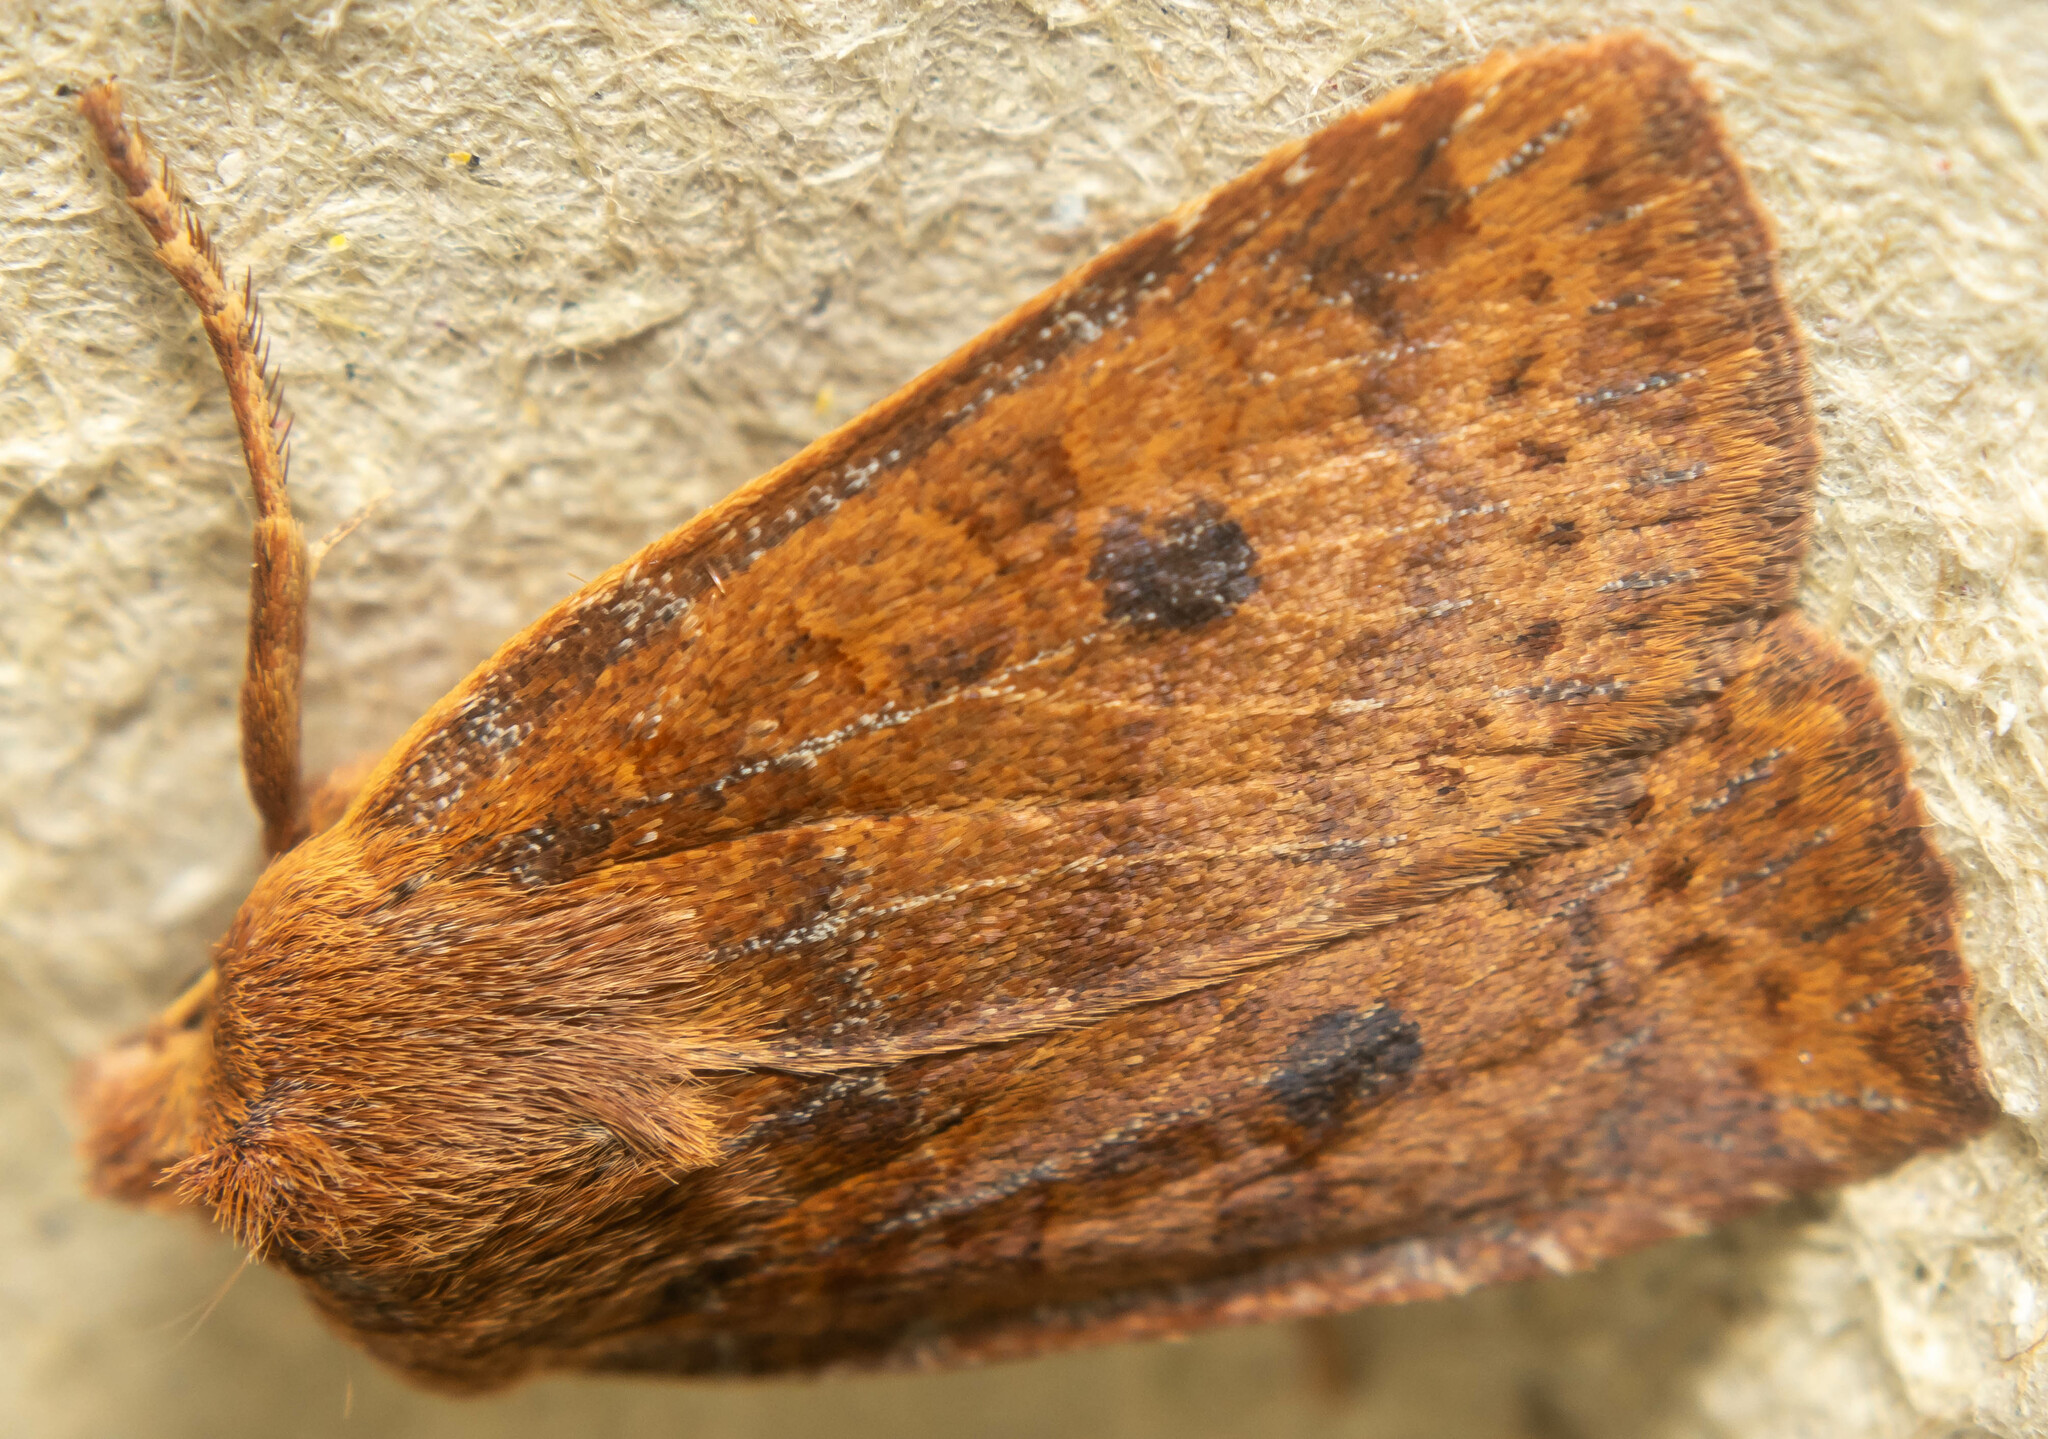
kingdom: Animalia
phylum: Arthropoda
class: Insecta
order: Lepidoptera
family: Noctuidae
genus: Conistra
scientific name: Conistra vaccinii
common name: Chestnut
